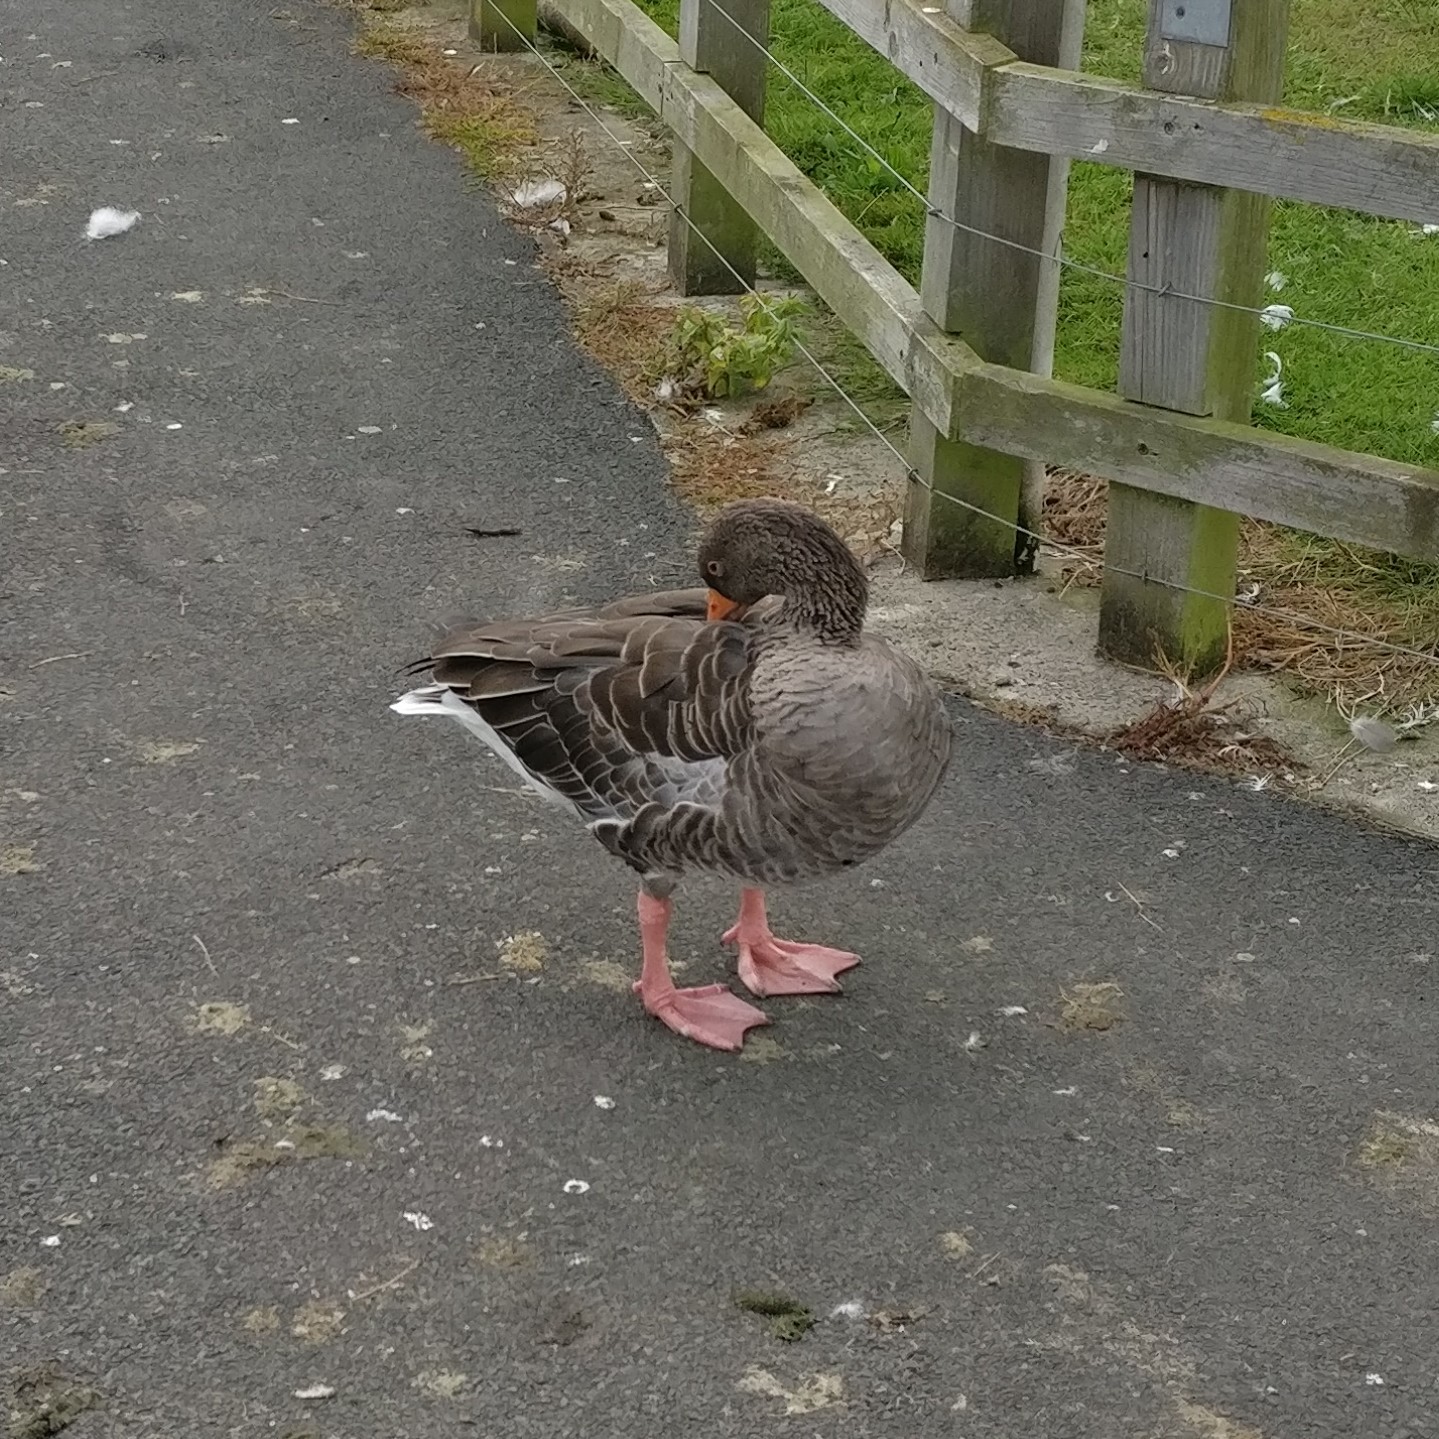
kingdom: Animalia
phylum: Chordata
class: Aves
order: Anseriformes
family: Anatidae
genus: Anser
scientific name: Anser anser
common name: Greylag goose
